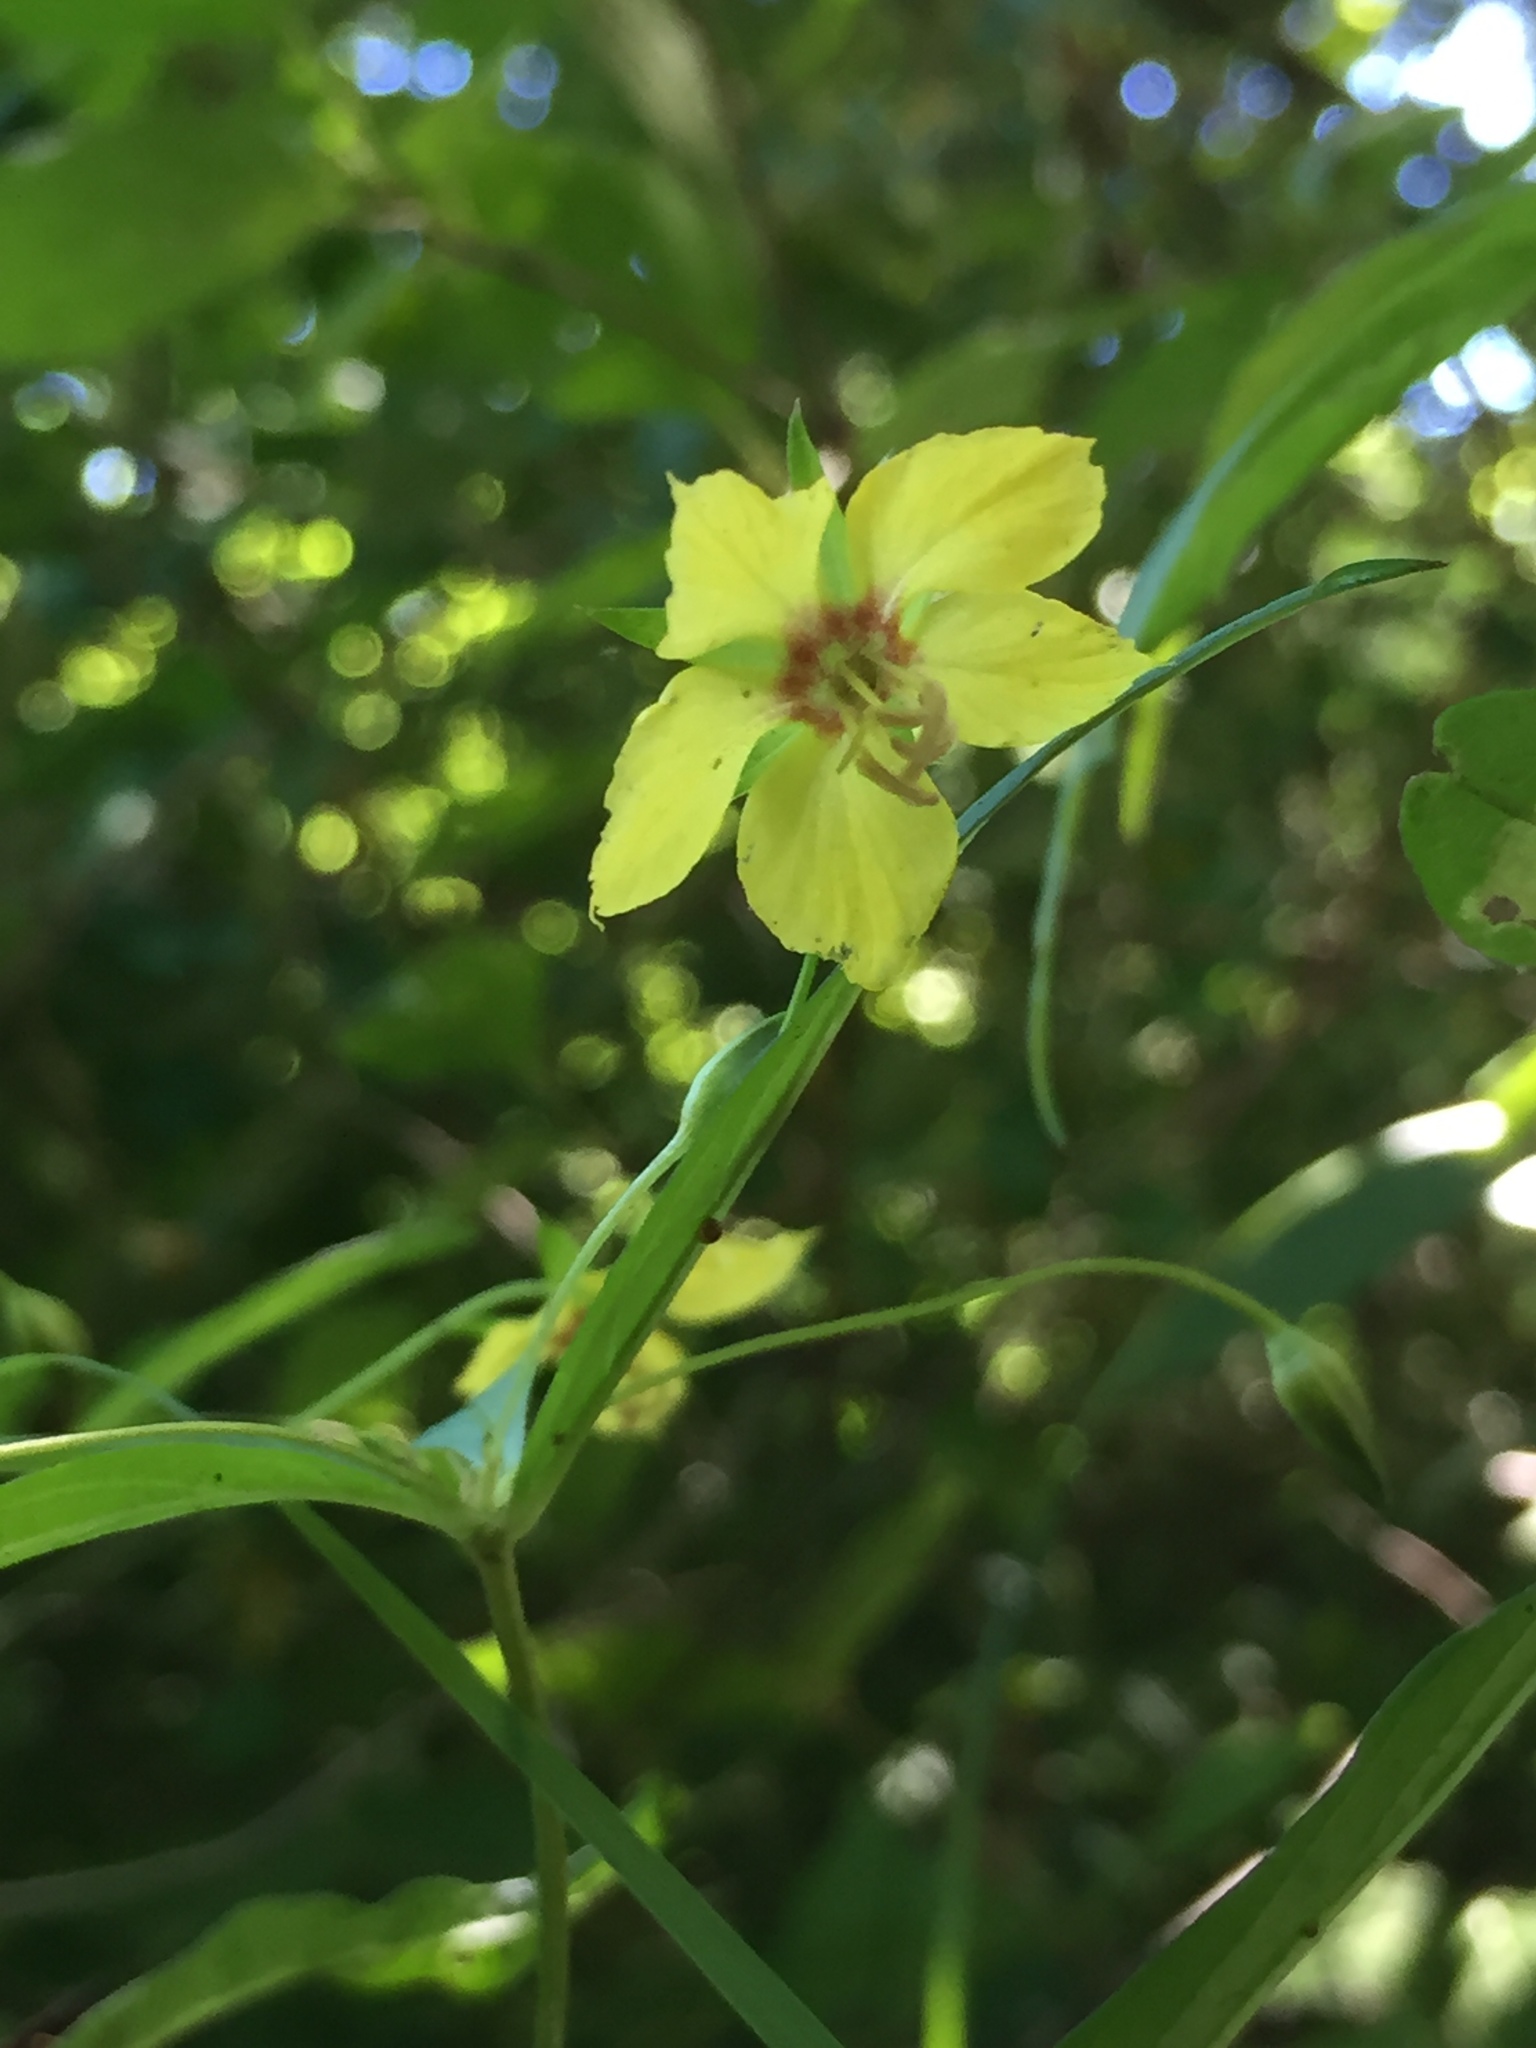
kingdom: Plantae
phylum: Tracheophyta
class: Magnoliopsida
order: Ericales
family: Primulaceae
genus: Lysimachia
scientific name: Lysimachia lanceolata
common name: Lance-leaved loosestrife
